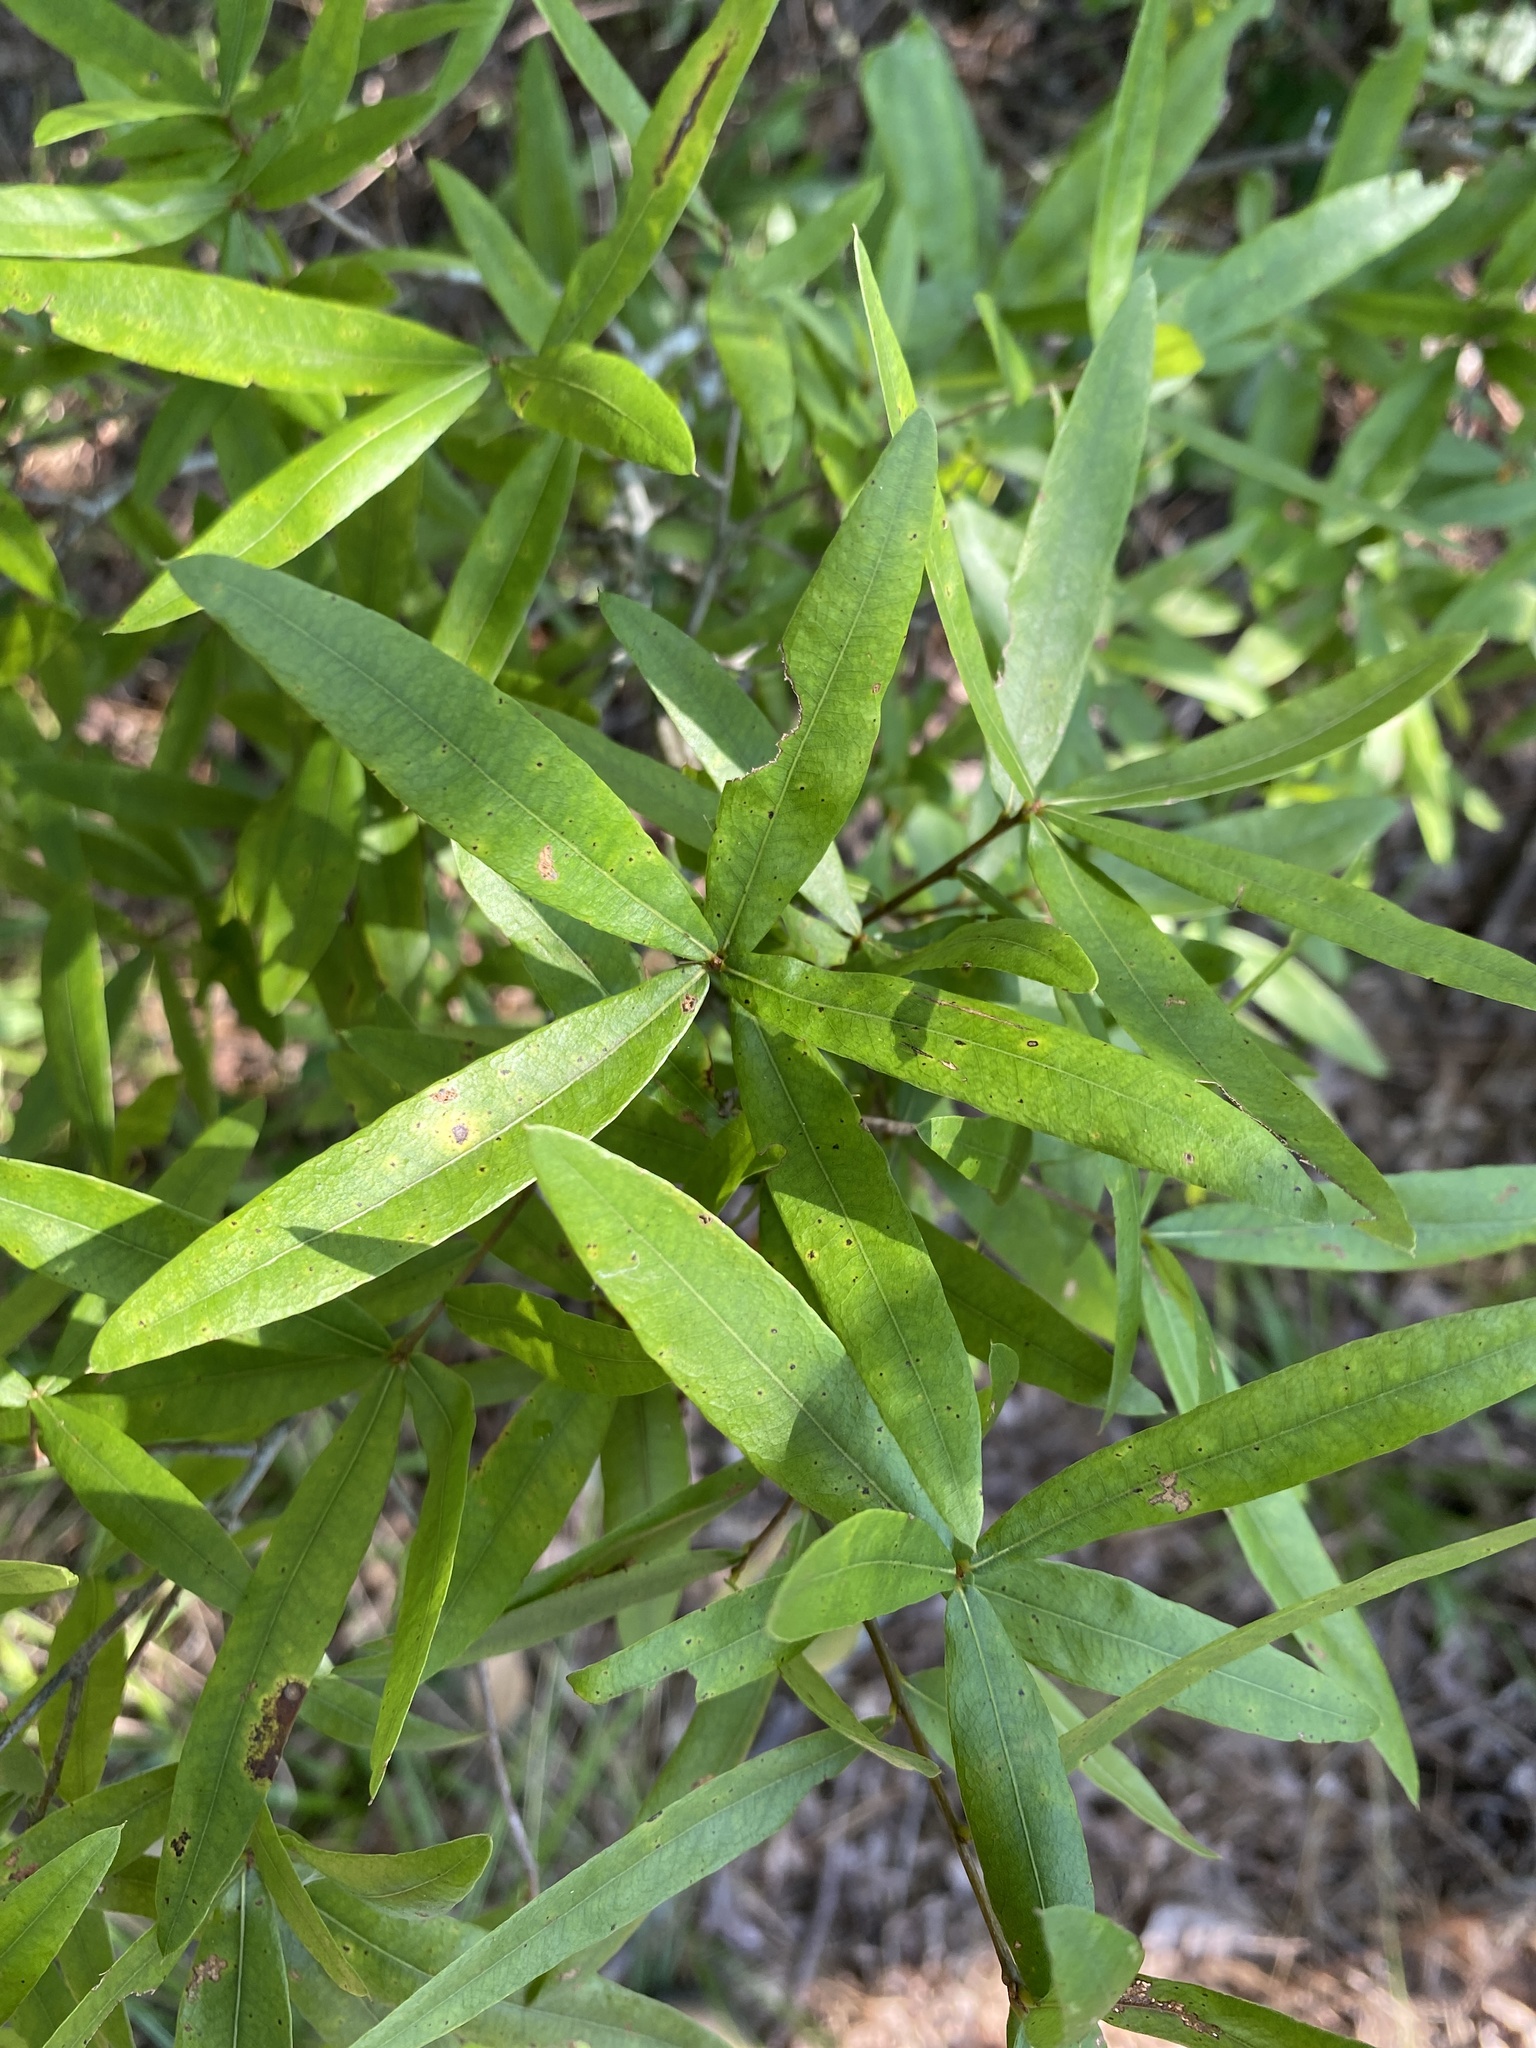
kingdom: Plantae
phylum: Tracheophyta
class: Magnoliopsida
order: Fagales
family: Fagaceae
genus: Quercus
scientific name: Quercus phellos
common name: Willow oak
